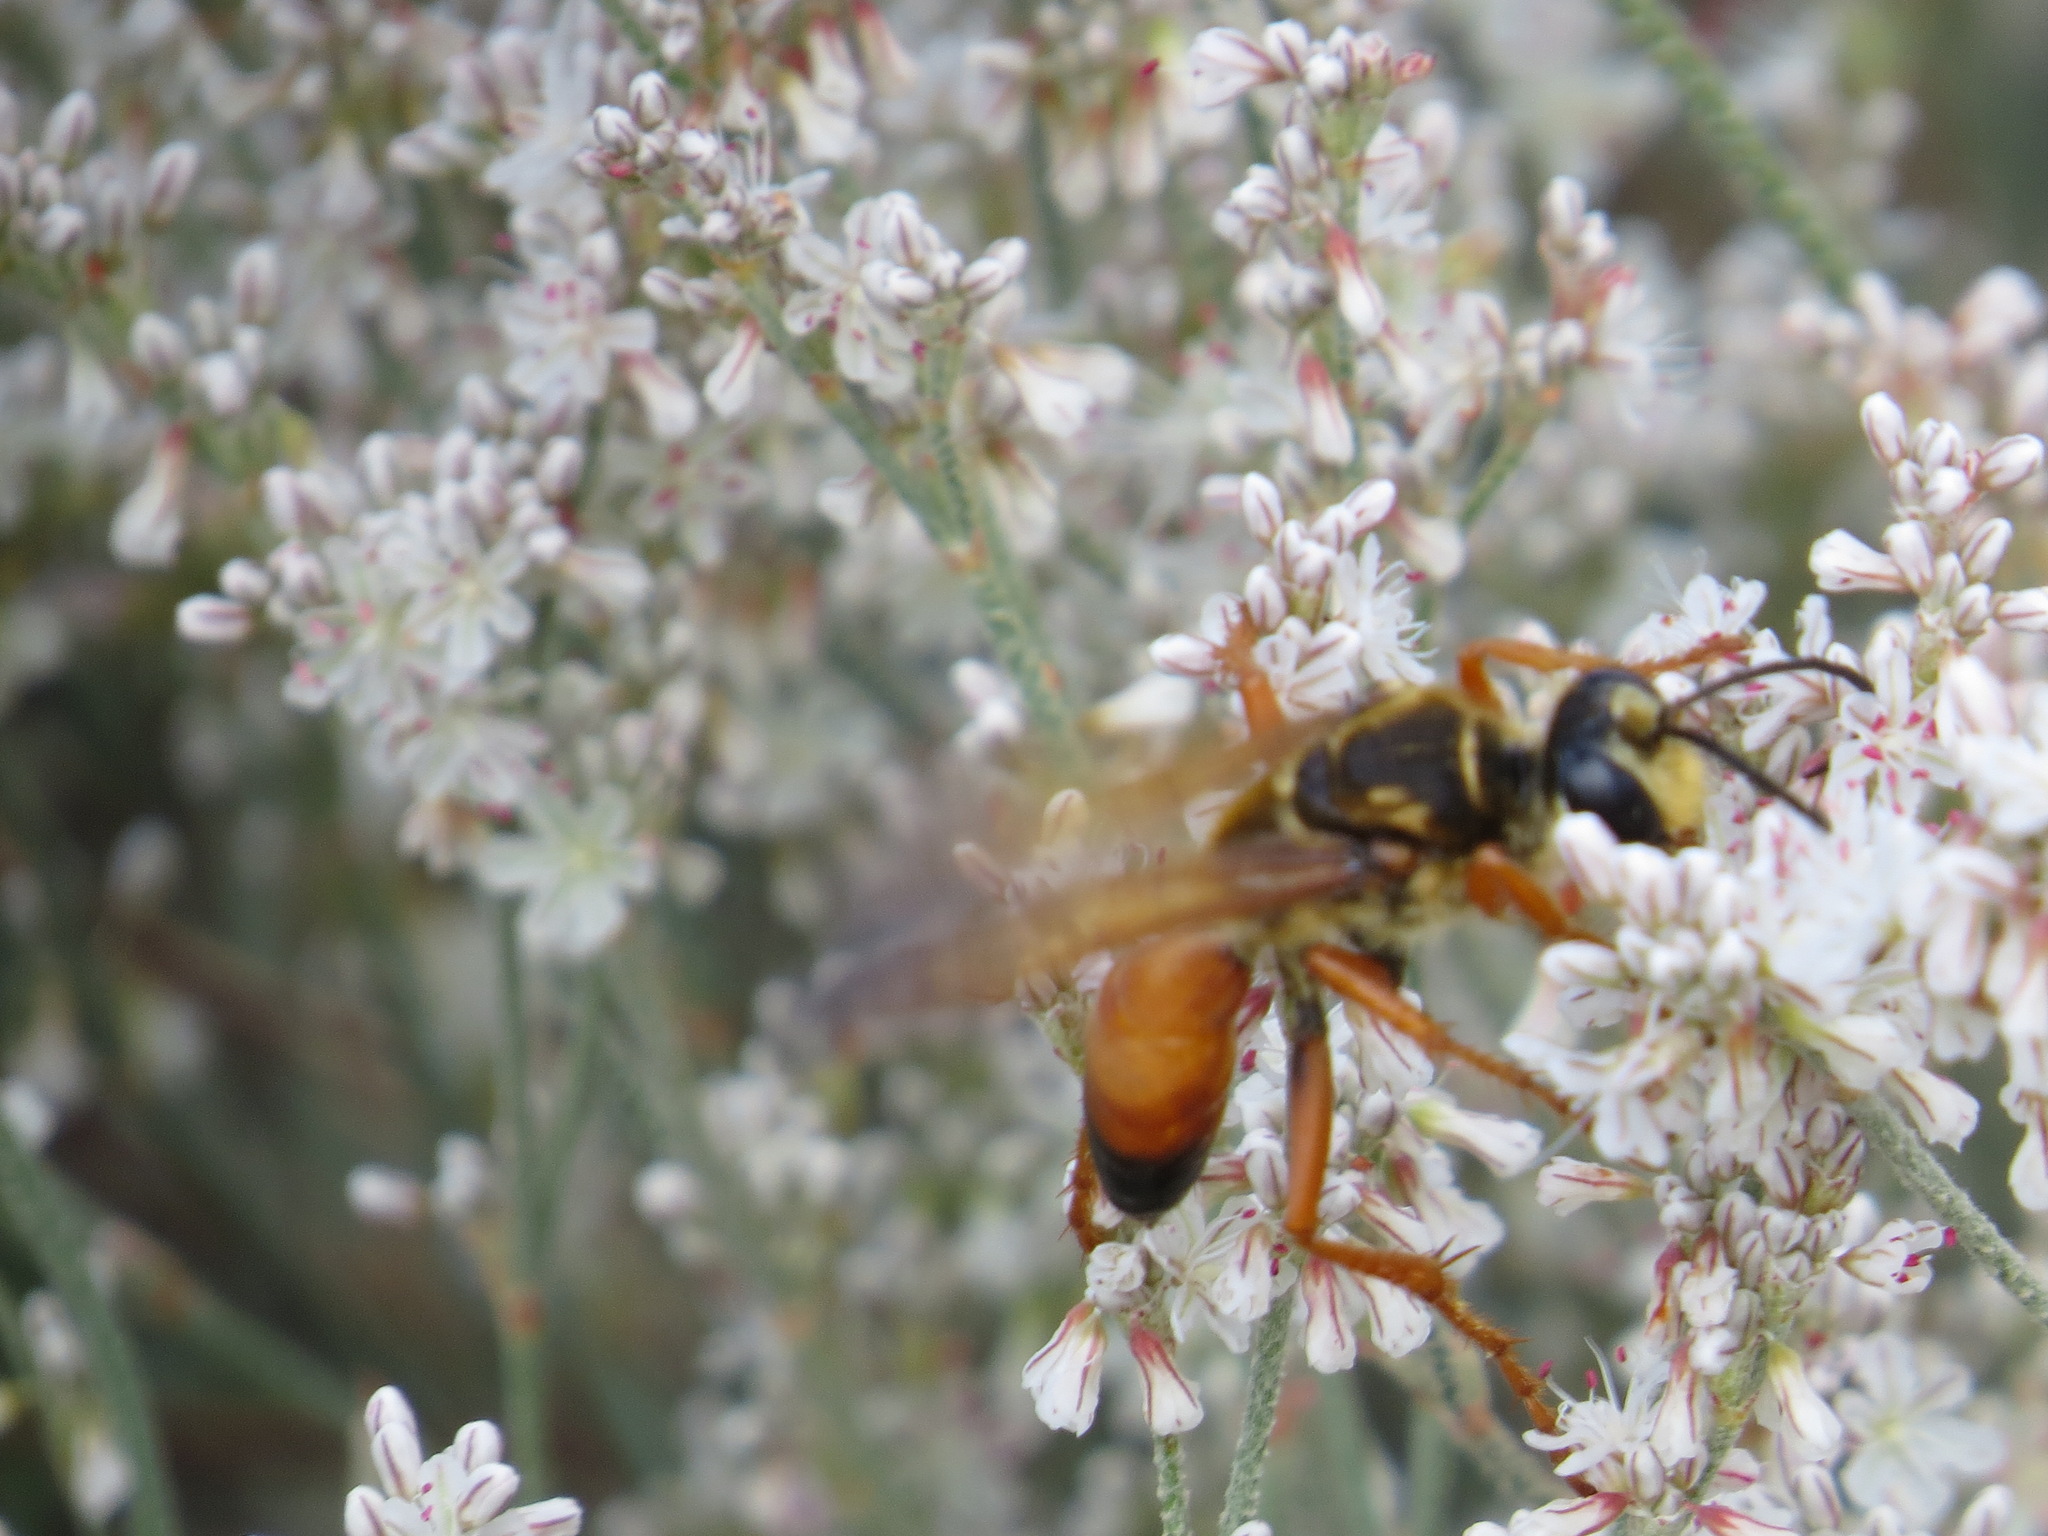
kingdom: Animalia
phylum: Arthropoda
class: Insecta
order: Hymenoptera
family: Sphecidae
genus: Sphex
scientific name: Sphex ichneumoneus
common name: Great golden digger wasp
